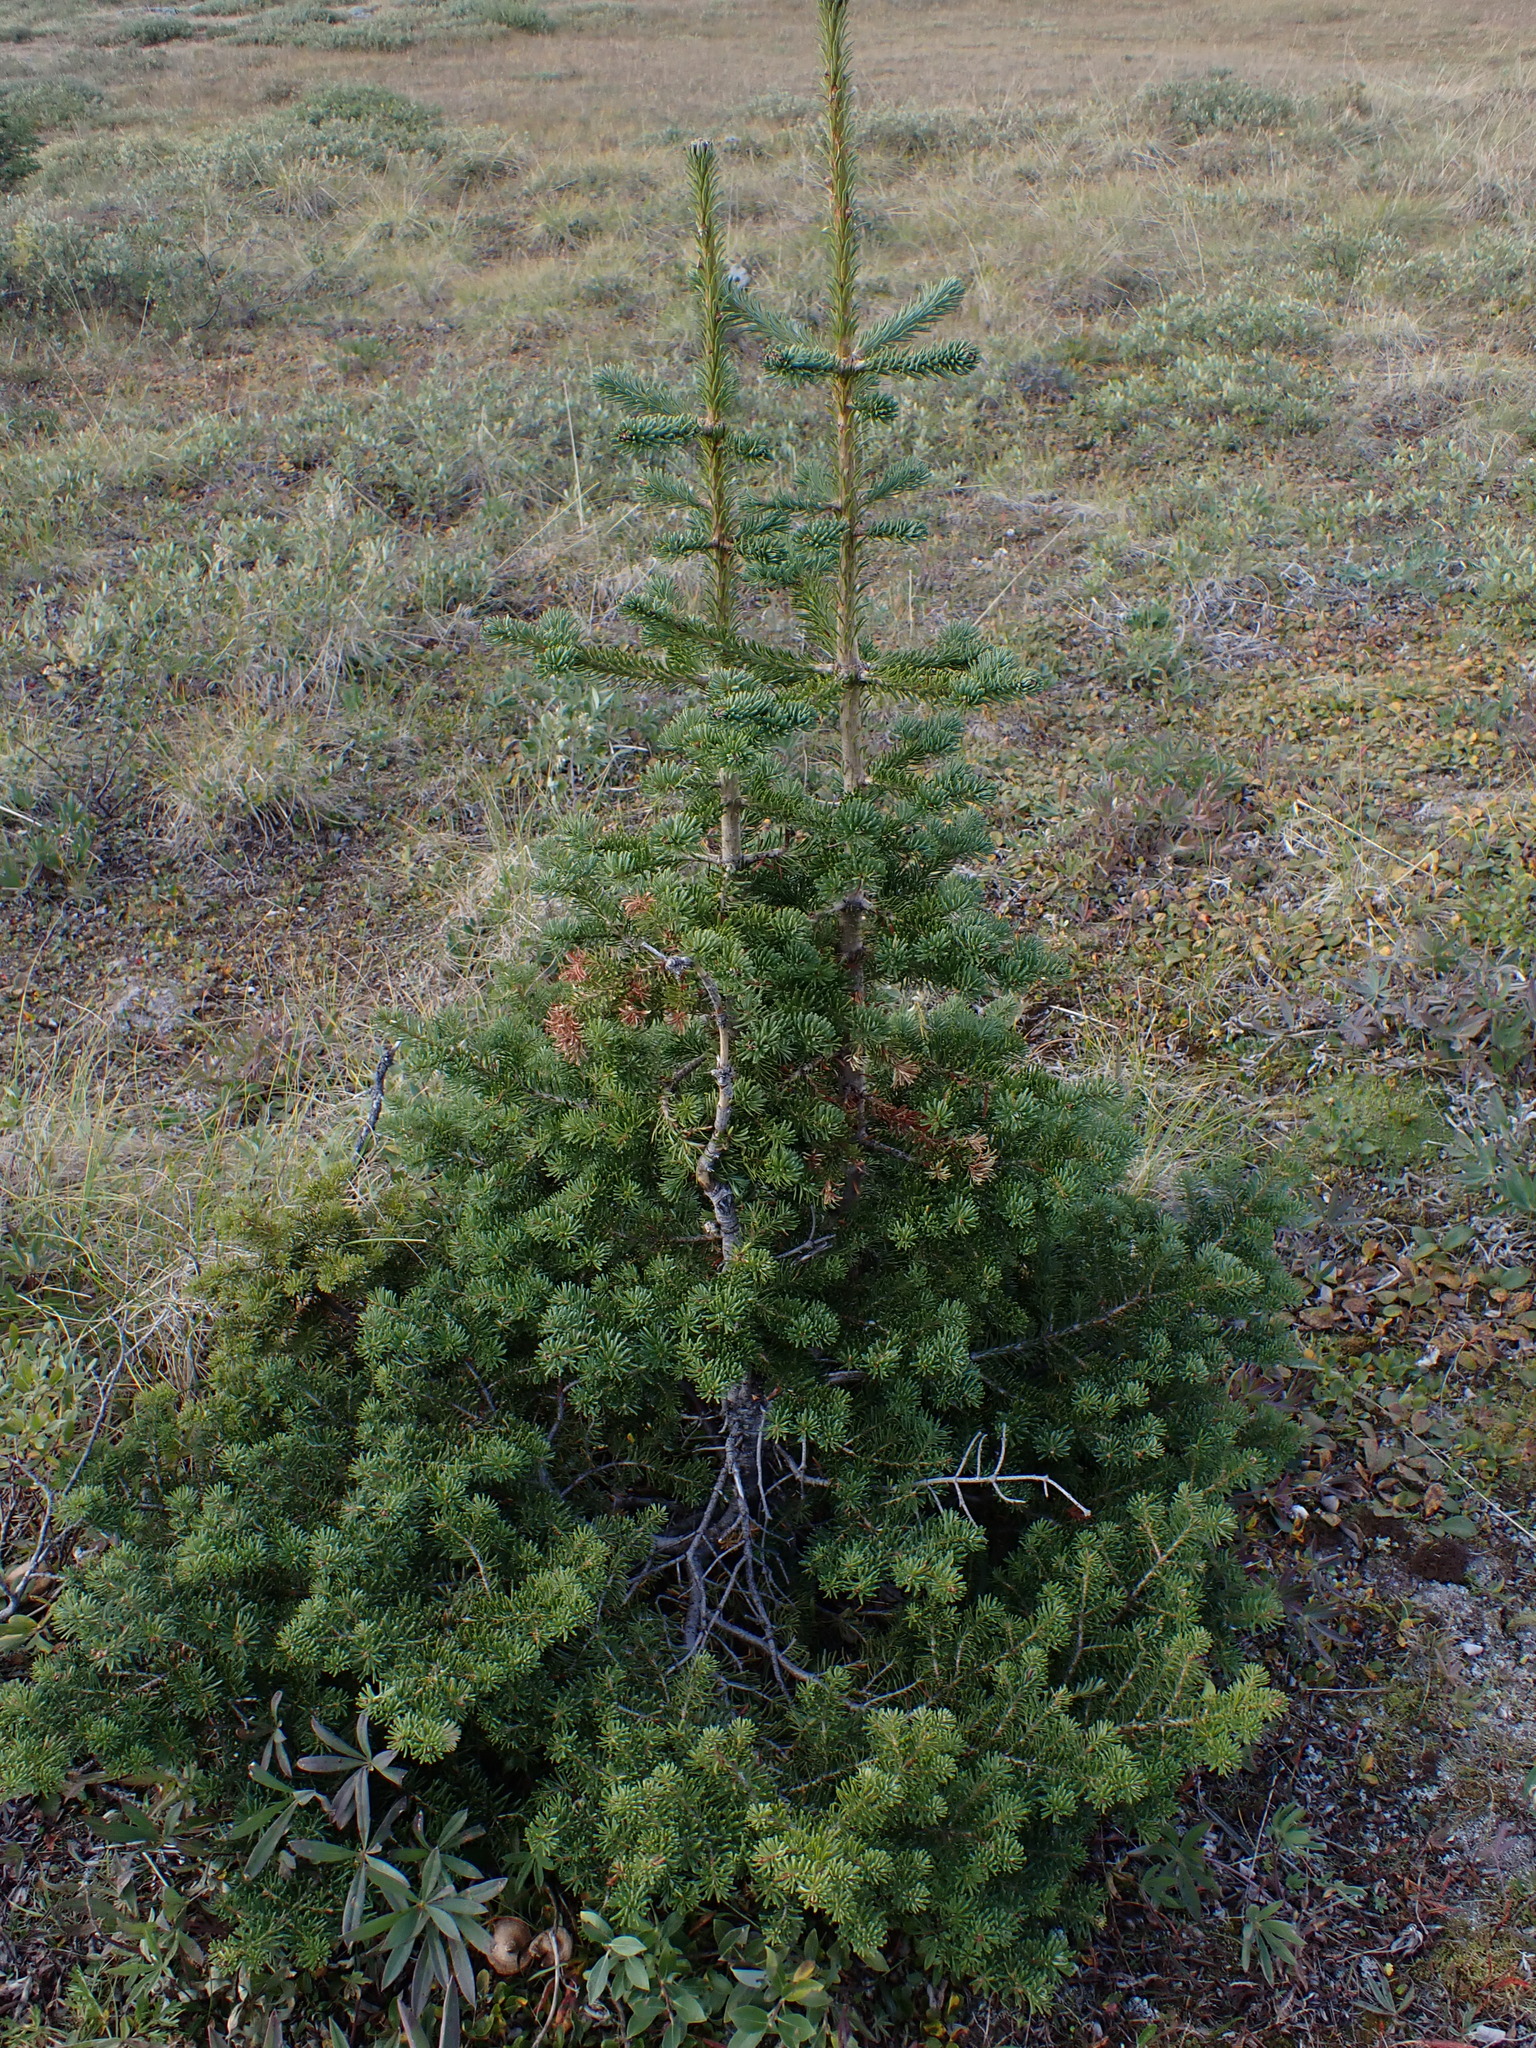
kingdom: Plantae
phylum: Tracheophyta
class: Pinopsida
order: Pinales
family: Pinaceae
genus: Abies
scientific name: Abies lasiocarpa
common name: Subalpine fir
